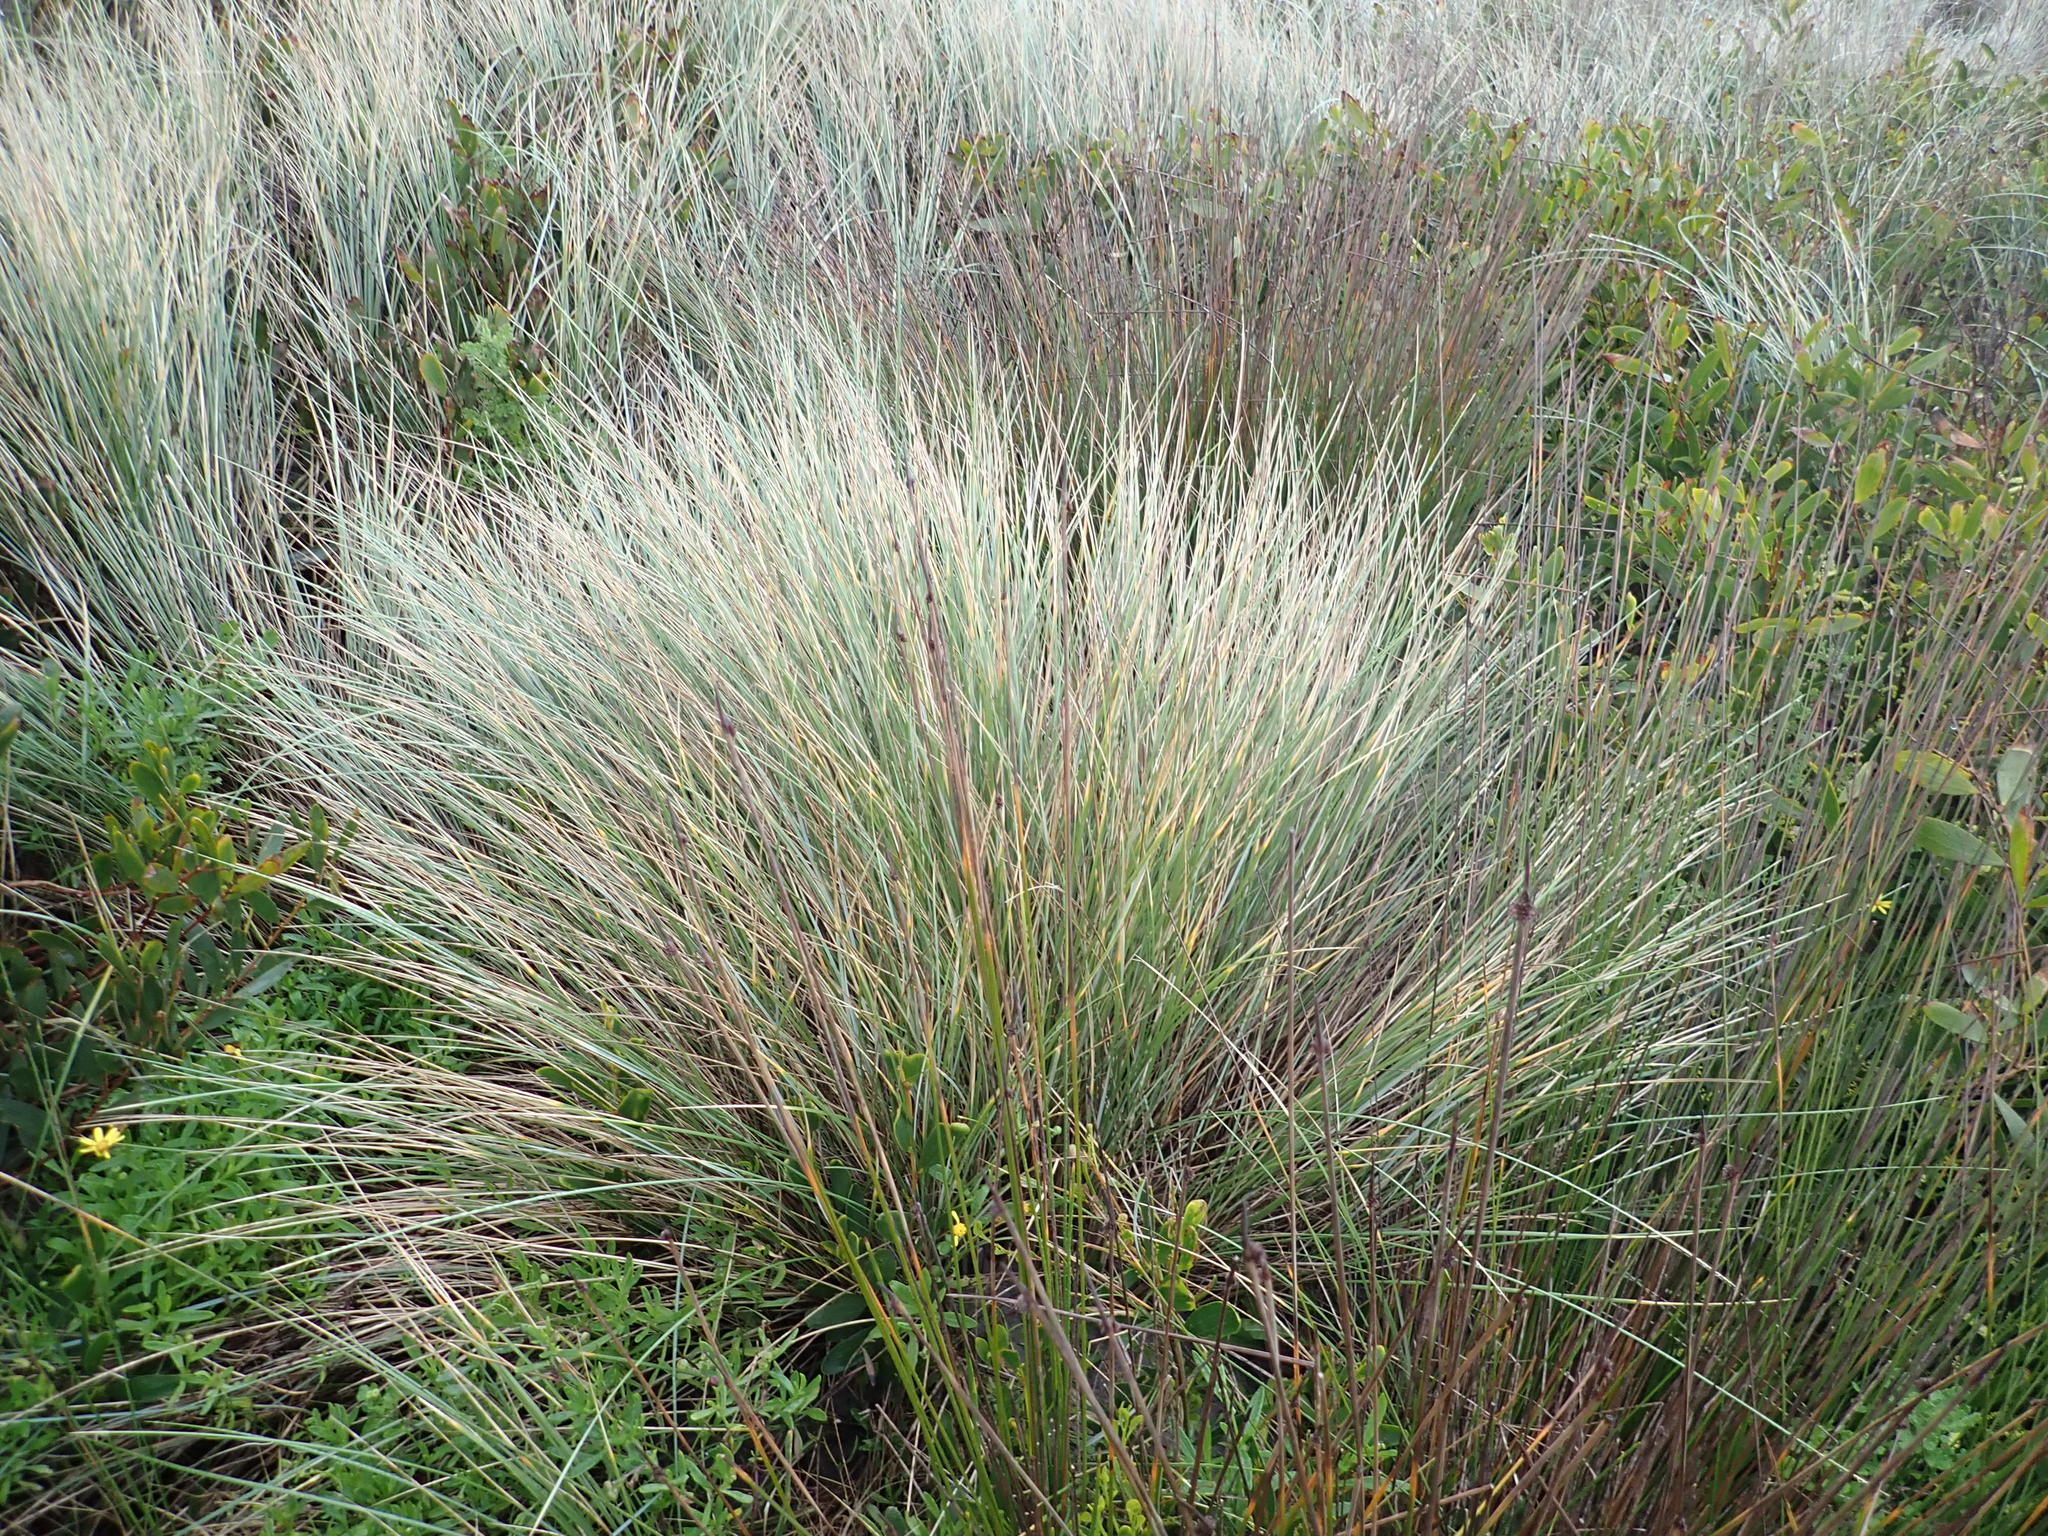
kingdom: Plantae
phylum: Tracheophyta
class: Liliopsida
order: Poales
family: Poaceae
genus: Calamagrostis
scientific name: Calamagrostis arenaria
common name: European beachgrass
